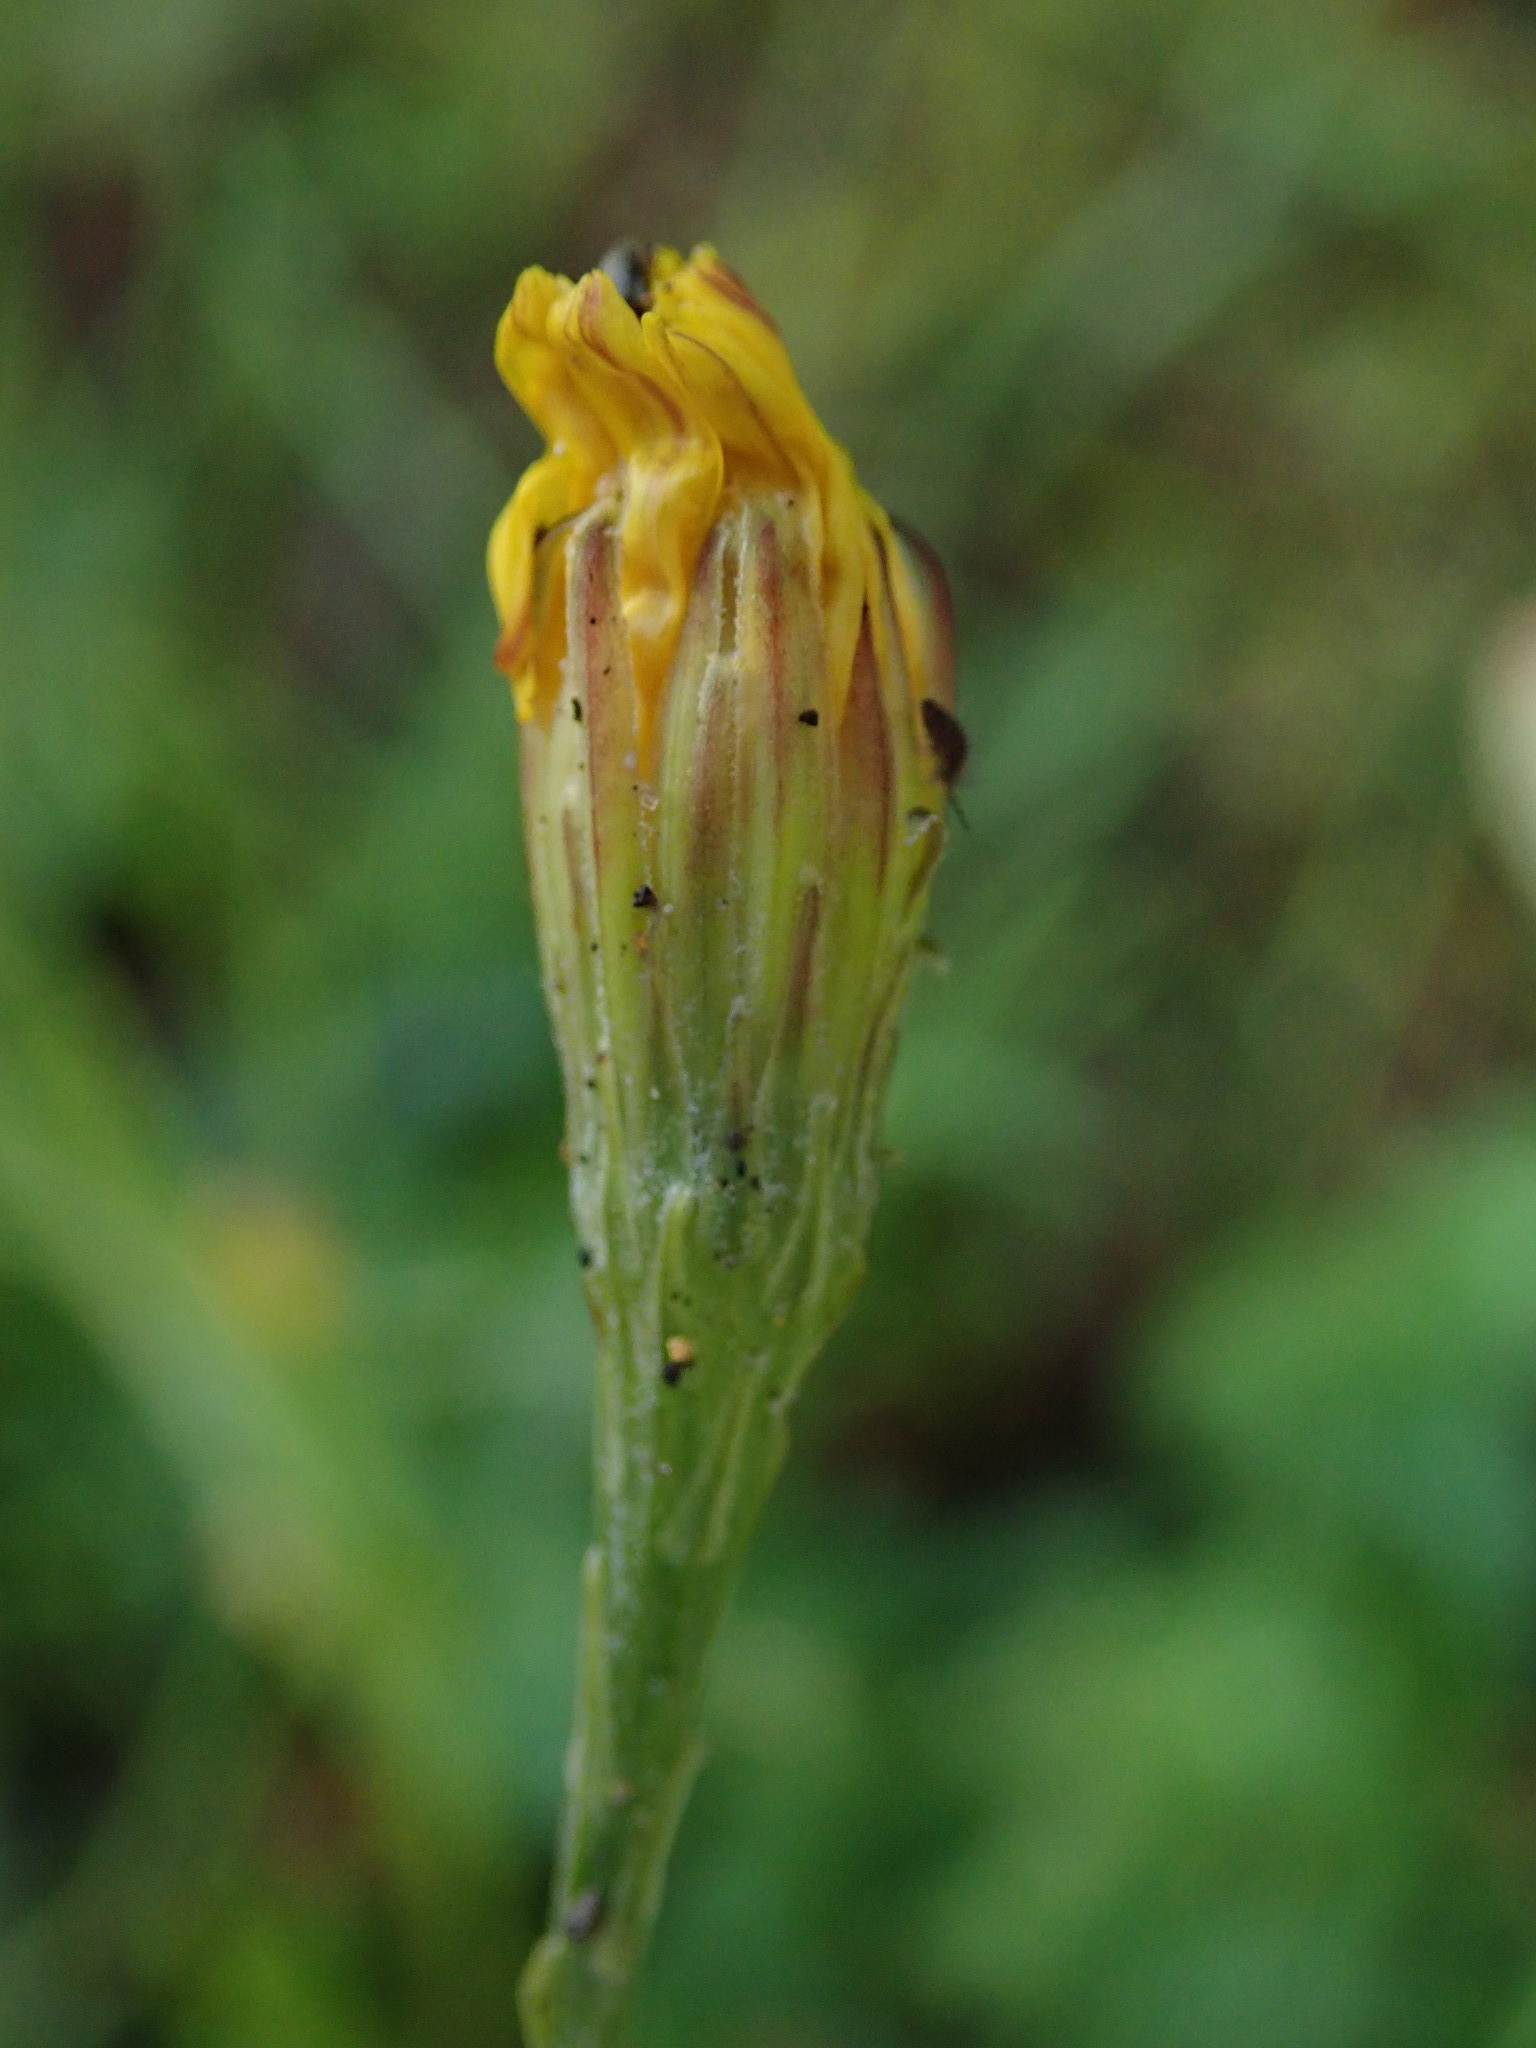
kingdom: Plantae
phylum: Tracheophyta
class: Magnoliopsida
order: Asterales
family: Asteraceae
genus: Scorzoneroides
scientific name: Scorzoneroides autumnalis
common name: Autumn hawkbit
